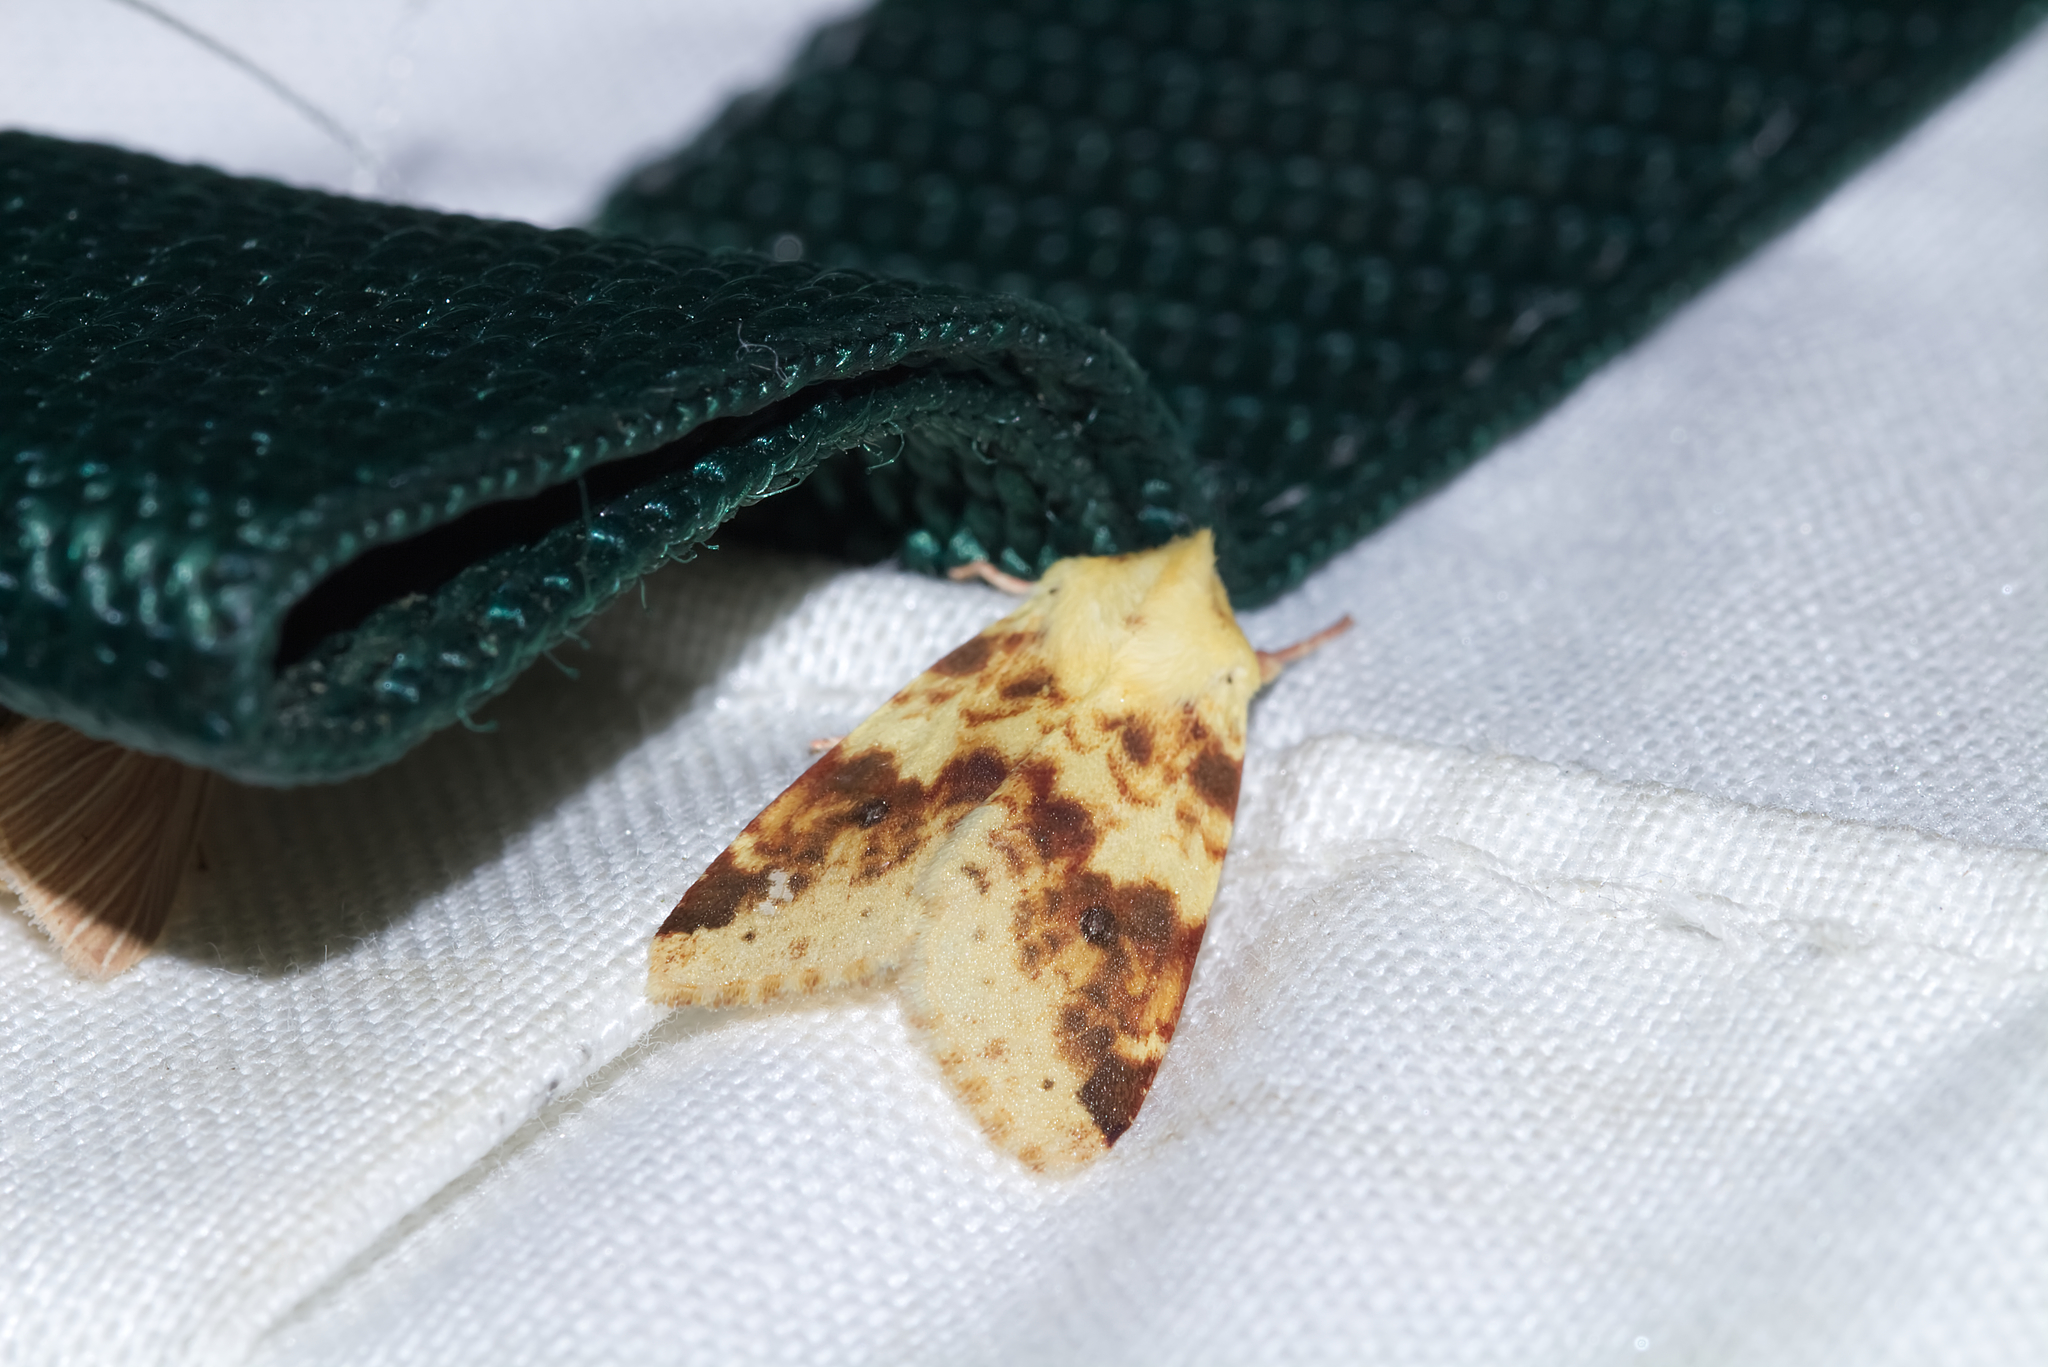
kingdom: Animalia
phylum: Arthropoda
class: Insecta
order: Lepidoptera
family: Noctuidae
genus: Xanthia
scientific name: Xanthia icteritia
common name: The sallow
